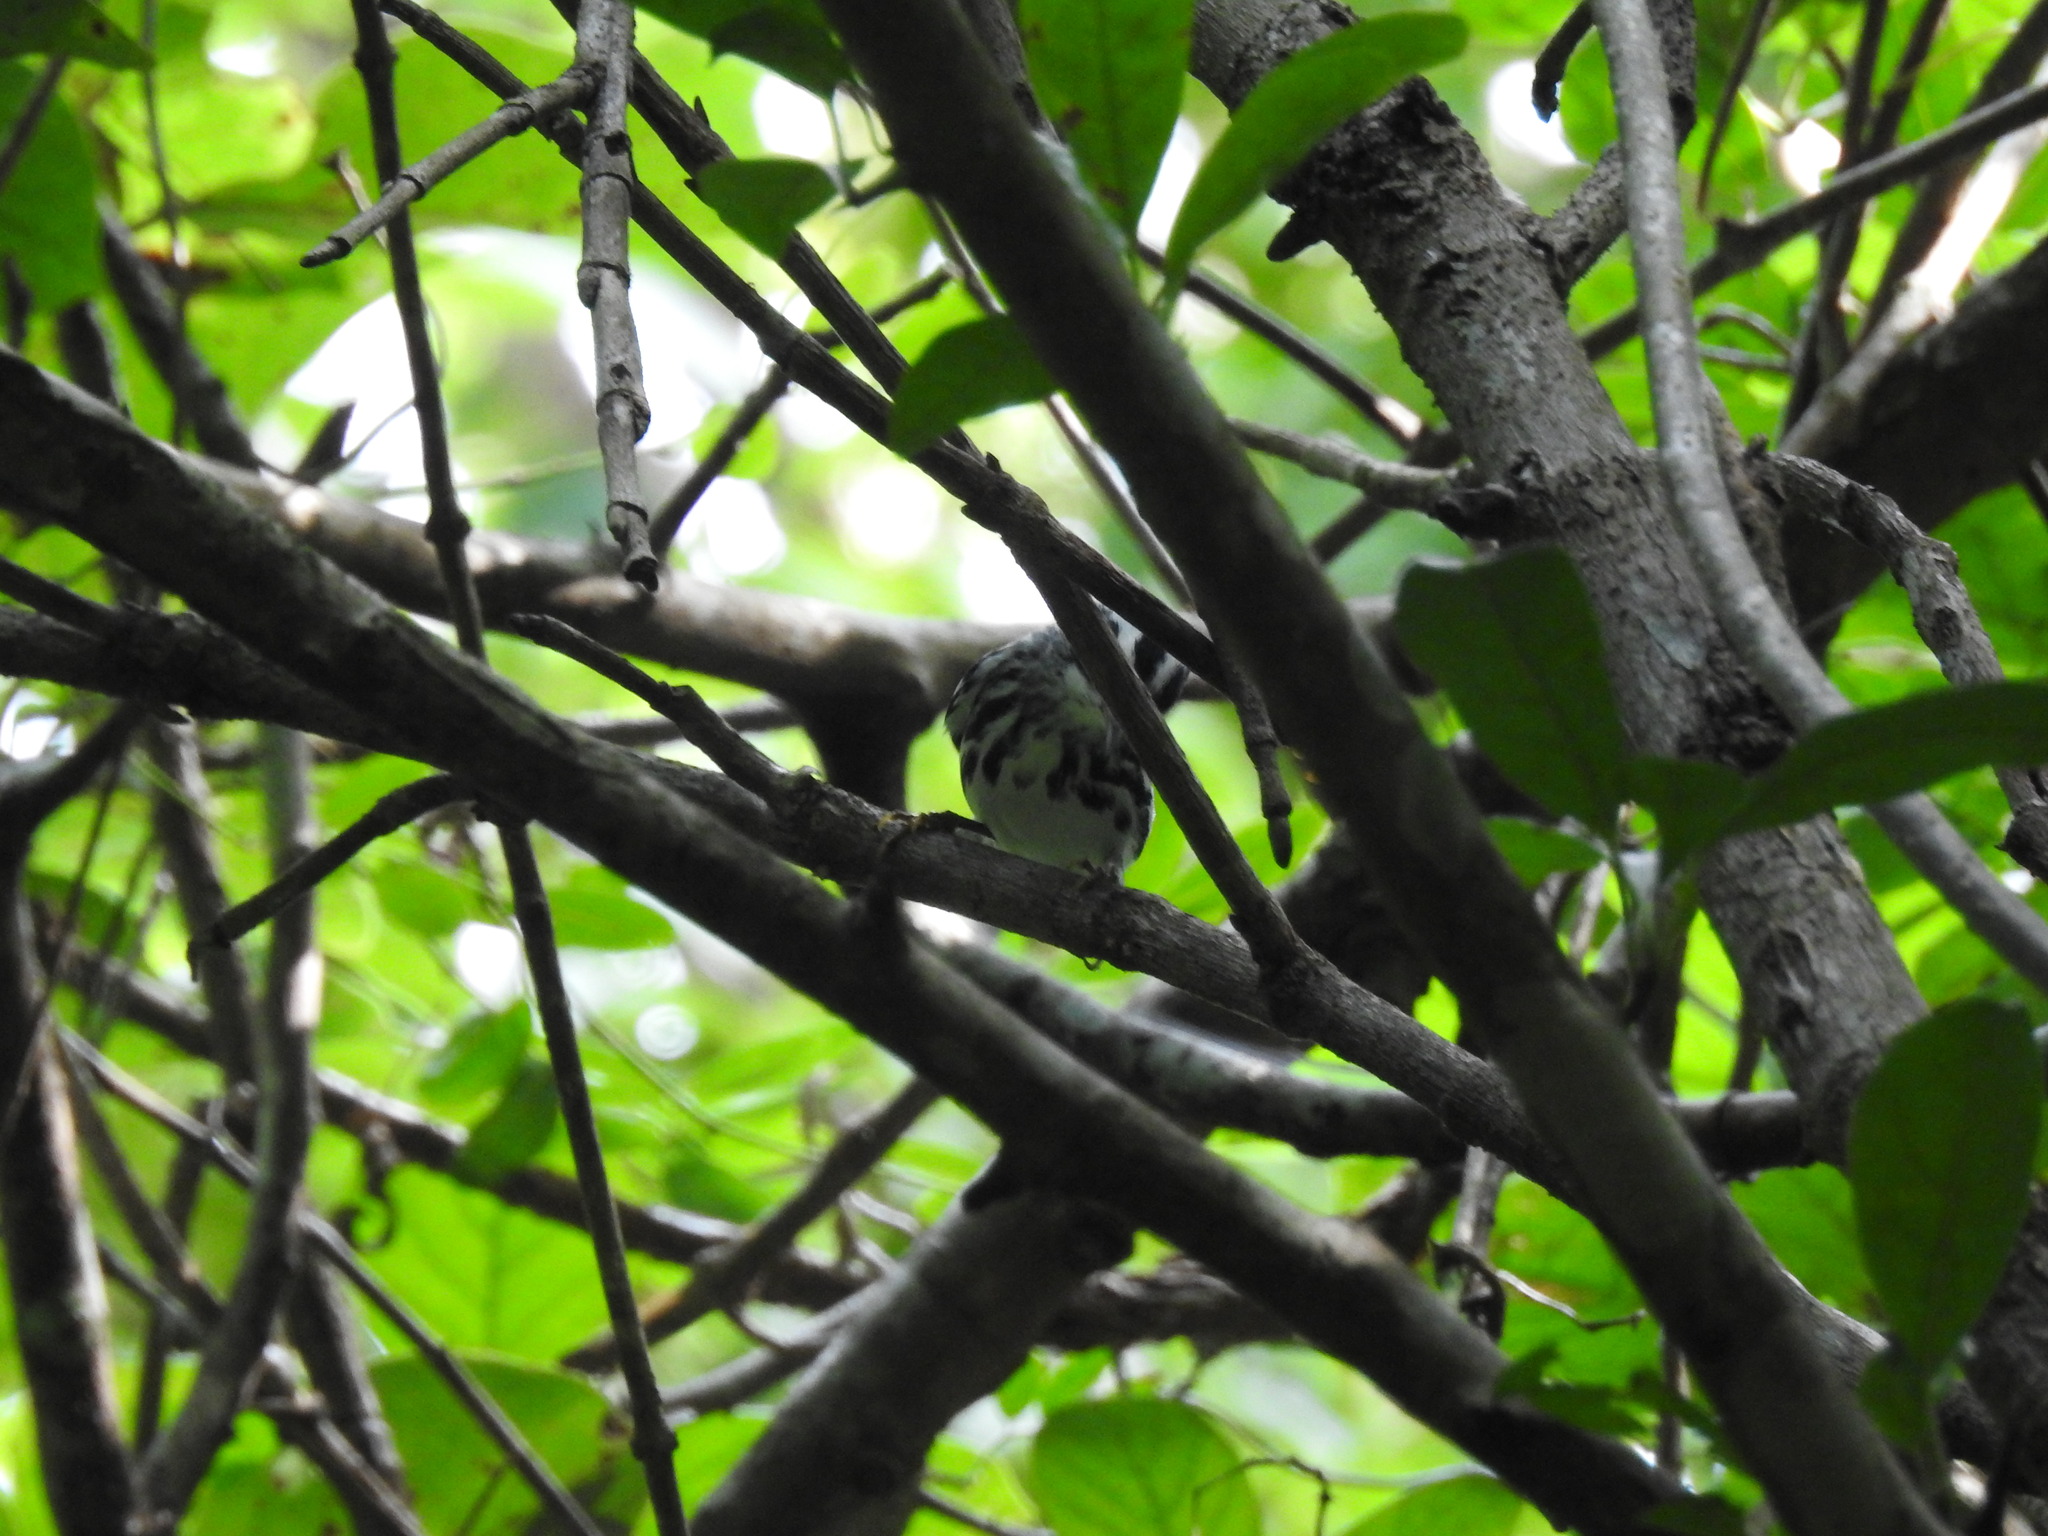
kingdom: Animalia
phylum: Chordata
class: Aves
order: Passeriformes
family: Parulidae
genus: Mniotilta
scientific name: Mniotilta varia
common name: Black-and-white warbler
